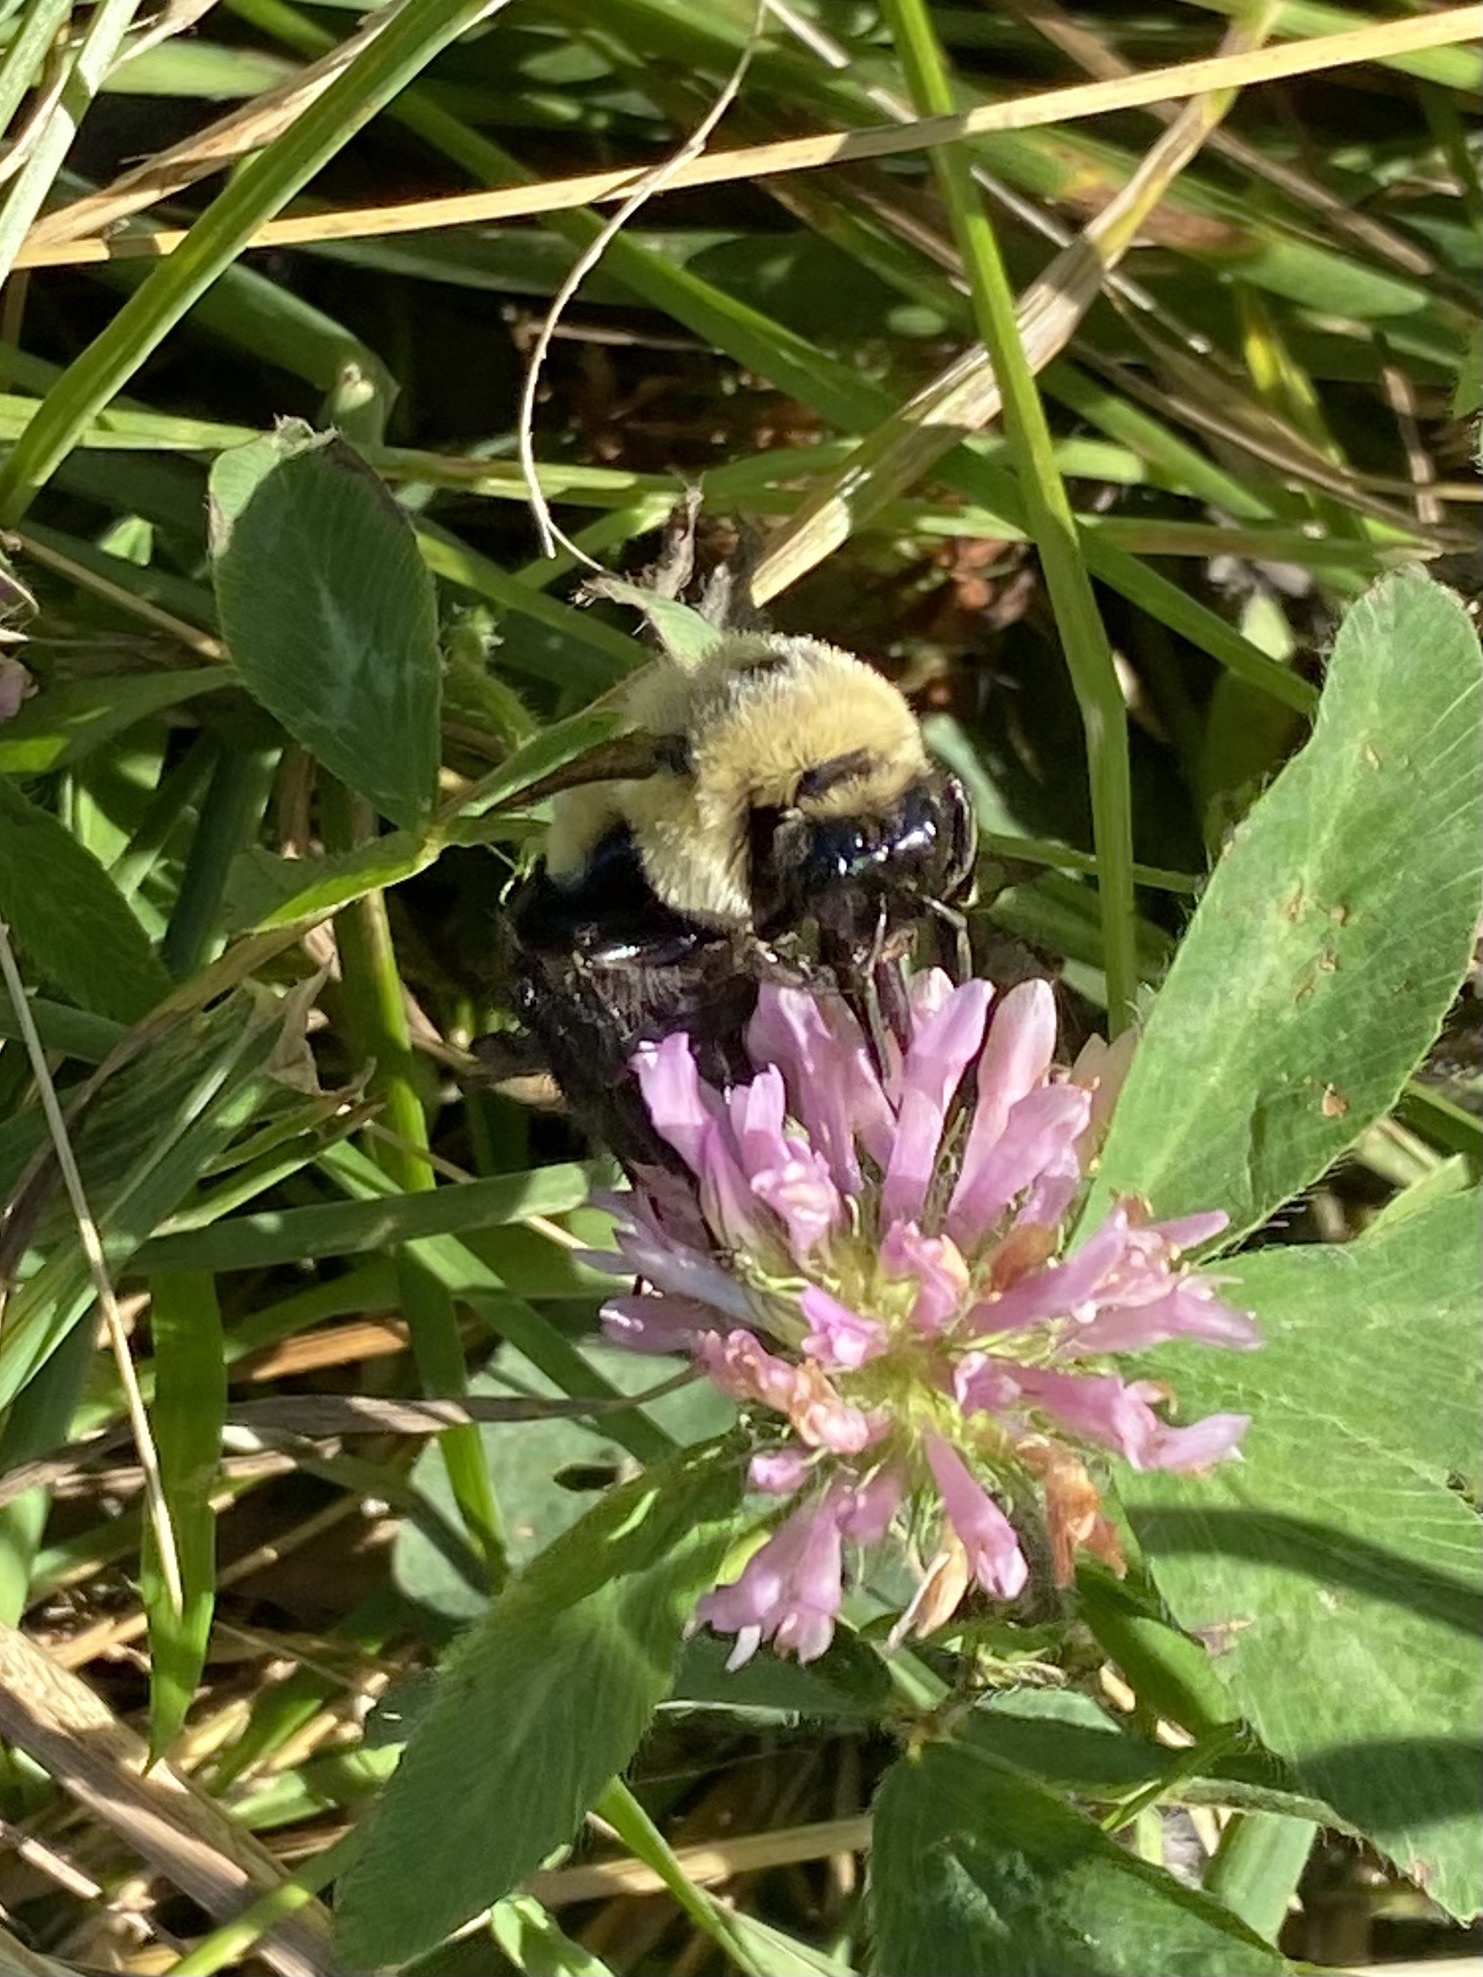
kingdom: Animalia
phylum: Arthropoda
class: Insecta
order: Hymenoptera
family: Apidae
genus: Bombus
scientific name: Bombus impatiens
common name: Common eastern bumble bee
